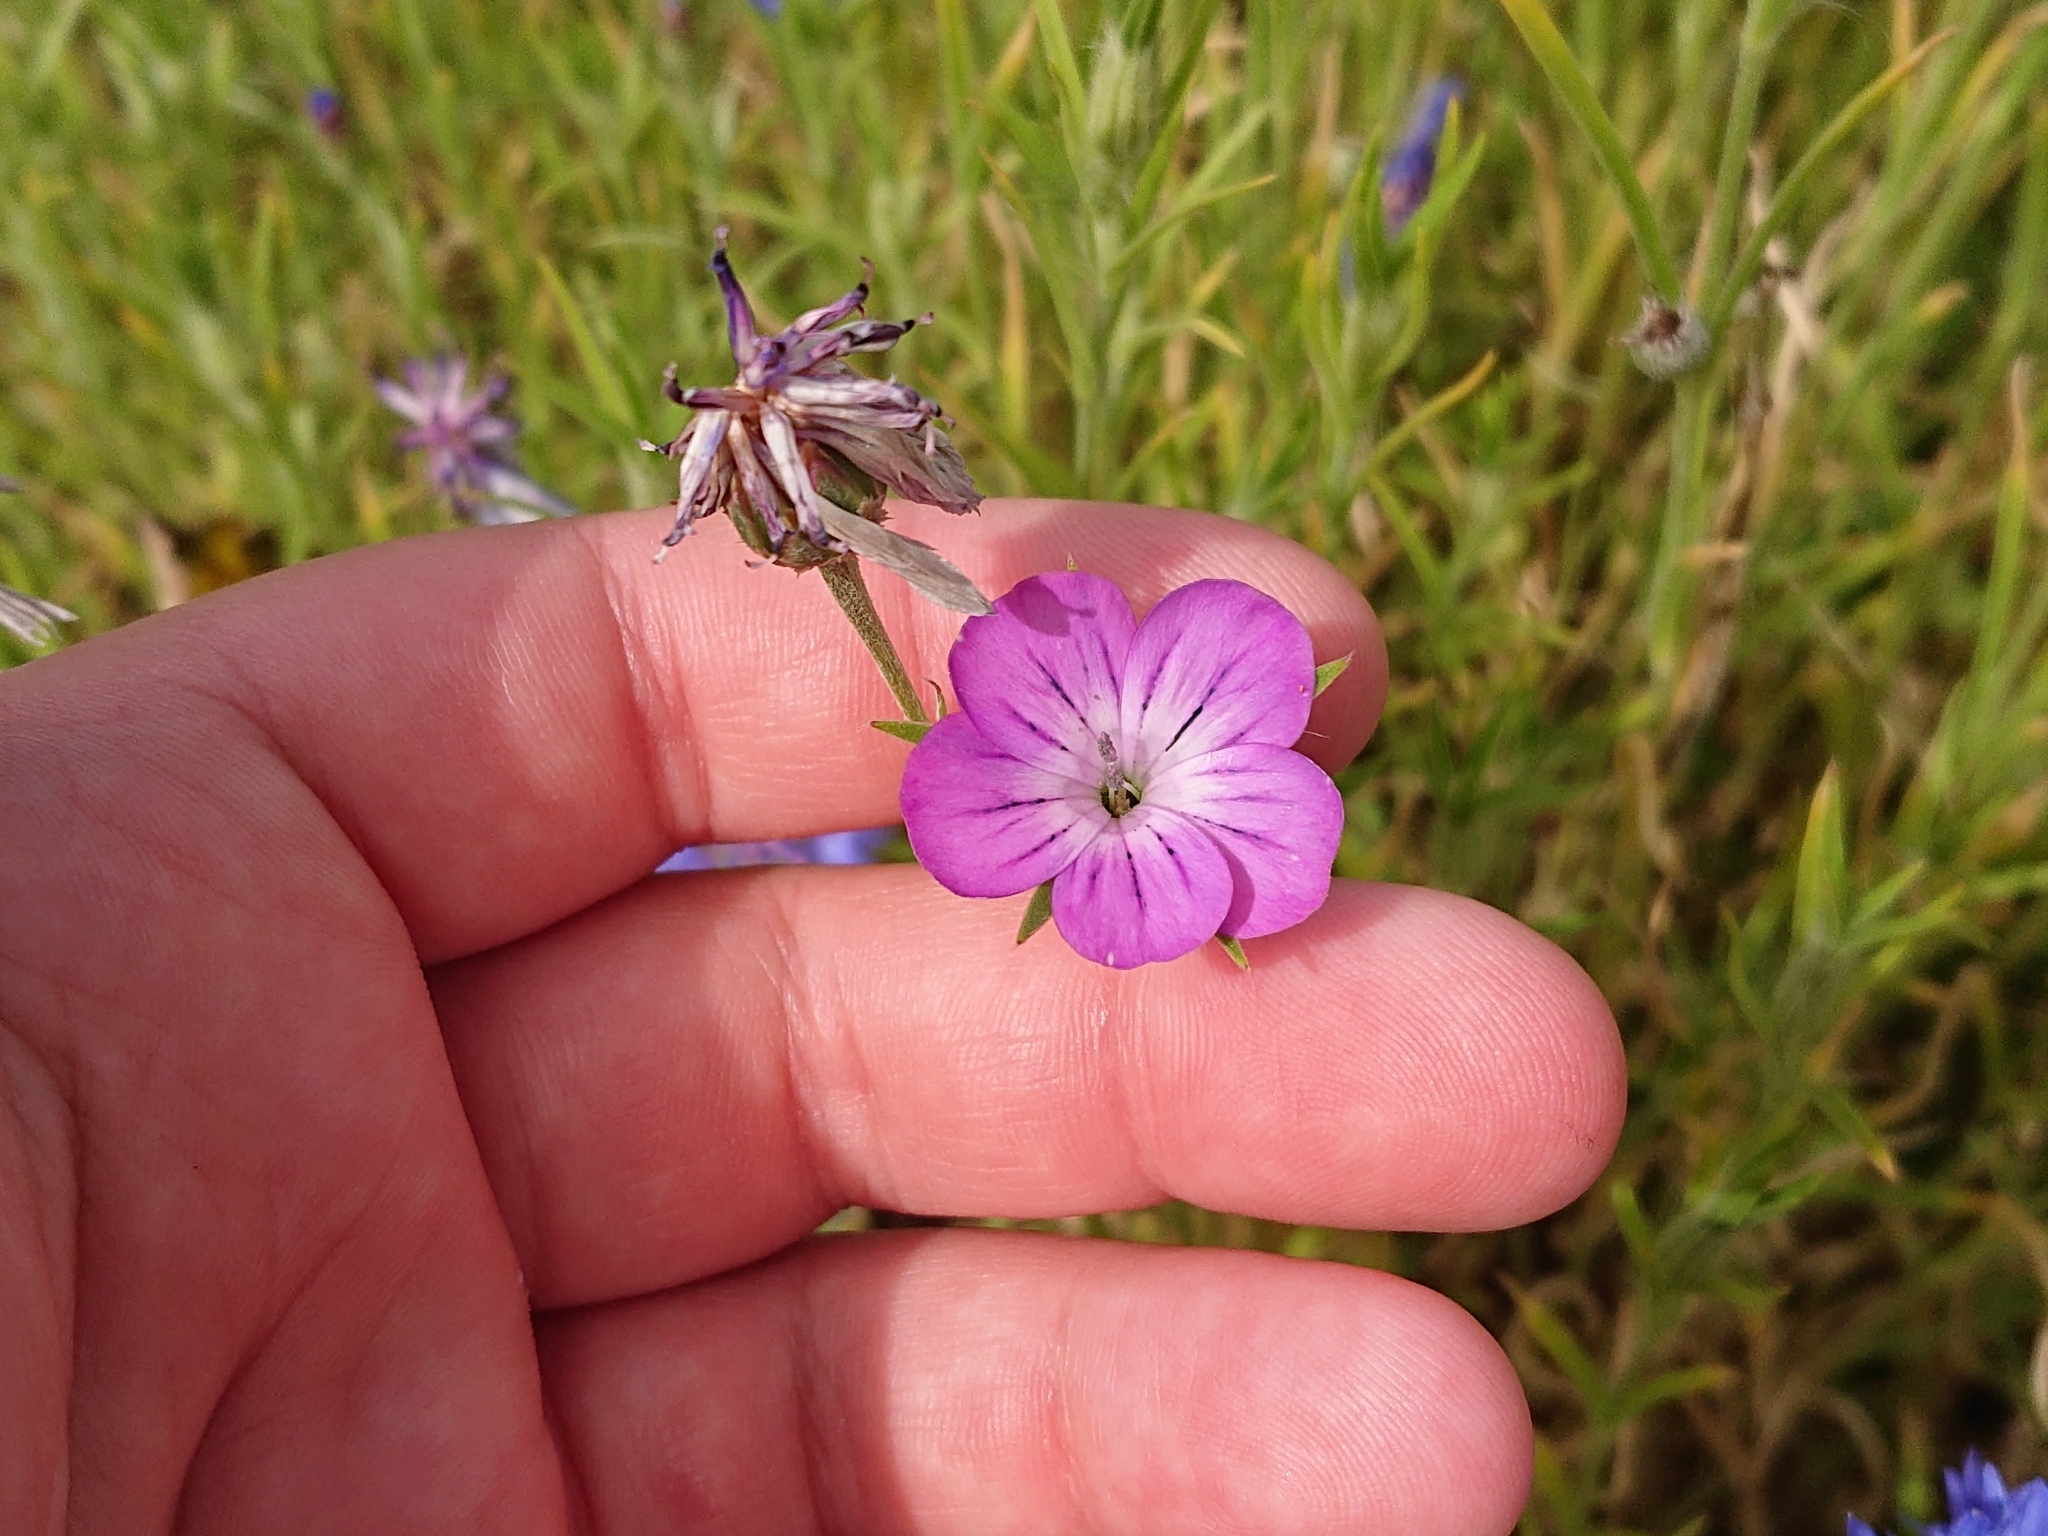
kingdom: Plantae
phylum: Tracheophyta
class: Magnoliopsida
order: Caryophyllales
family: Caryophyllaceae
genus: Agrostemma
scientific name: Agrostemma githago
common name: Common corncockle
